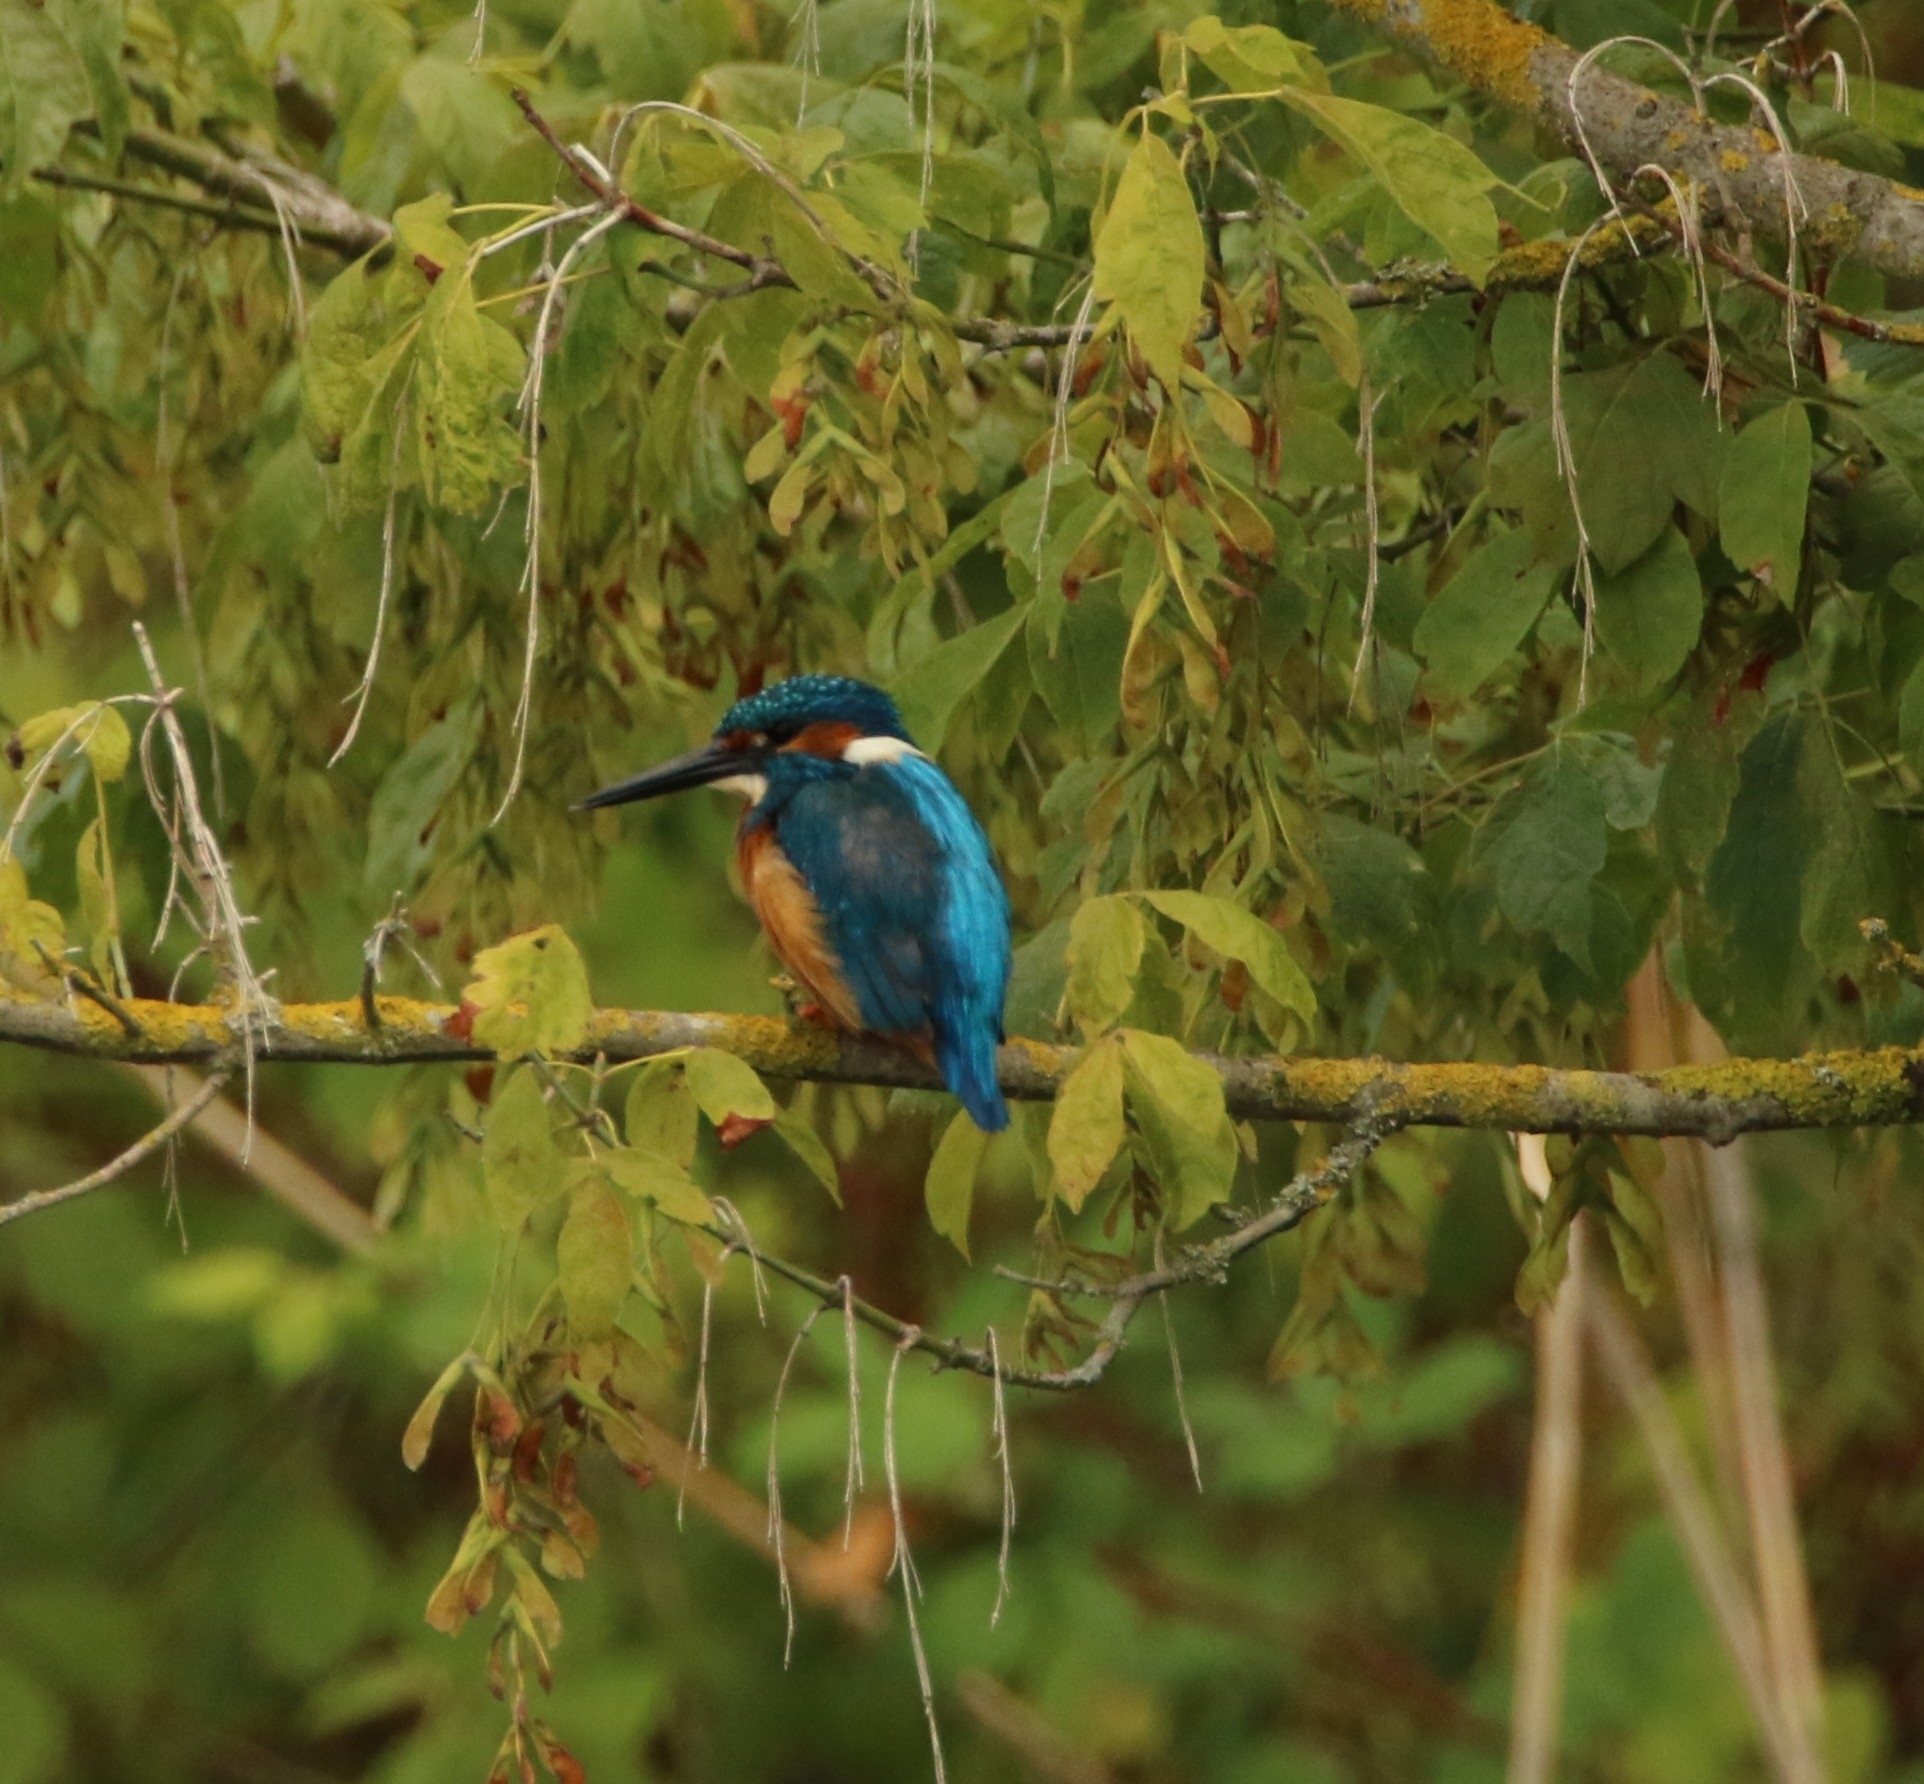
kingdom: Animalia
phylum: Chordata
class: Aves
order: Coraciiformes
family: Alcedinidae
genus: Alcedo
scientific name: Alcedo atthis
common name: Common kingfisher
